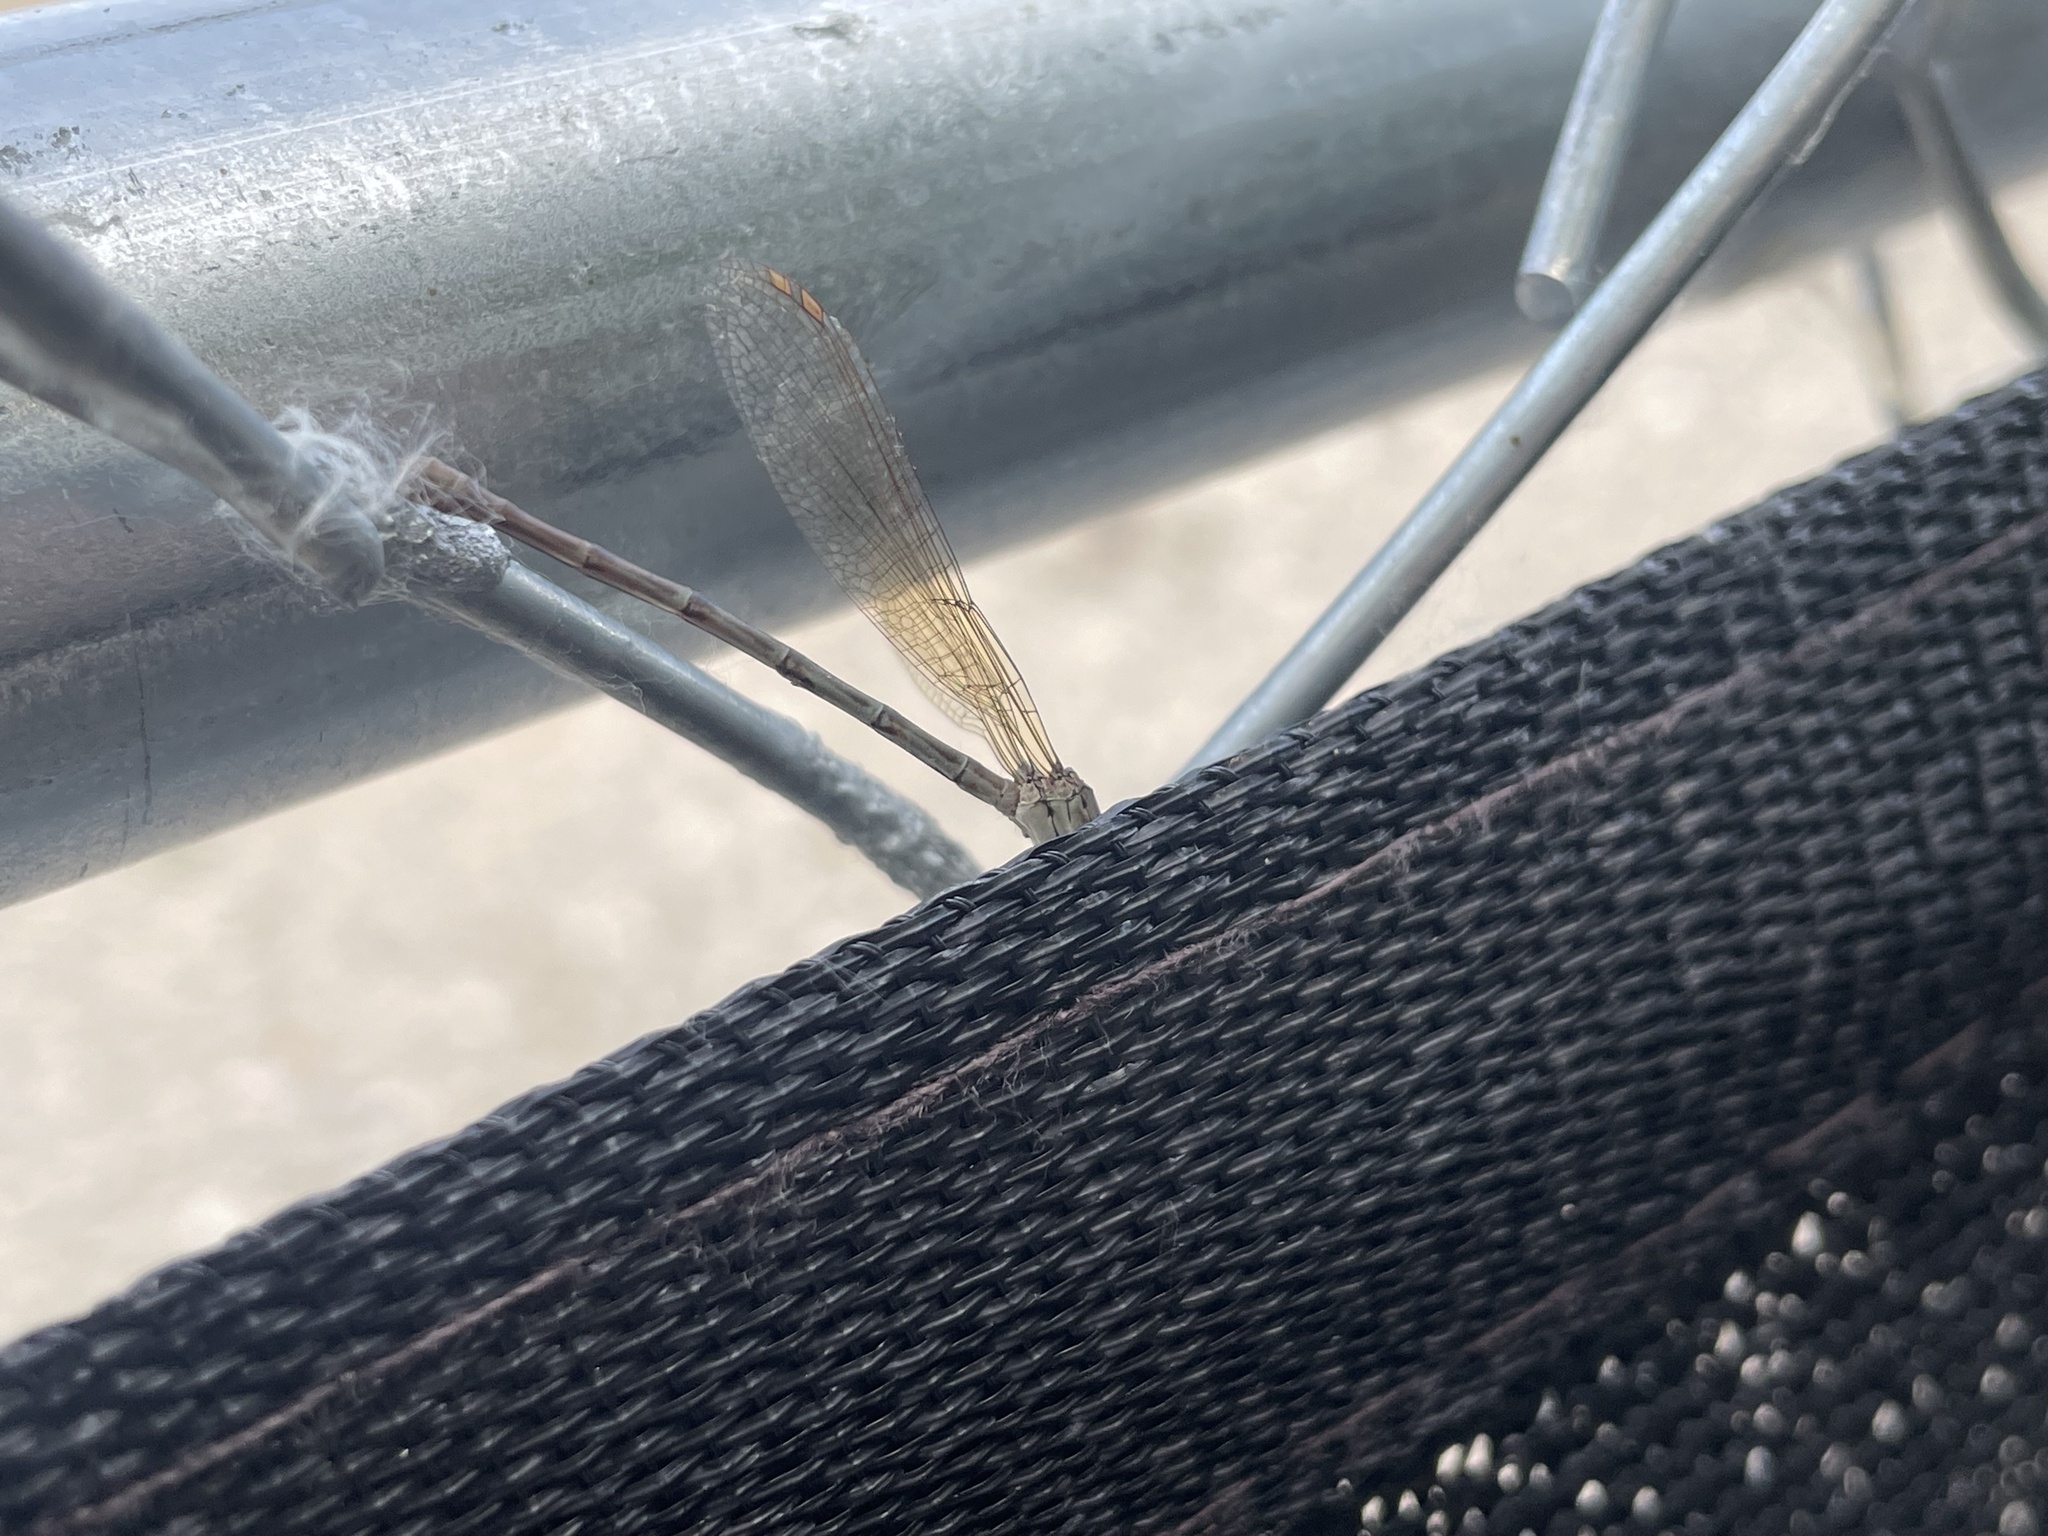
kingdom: Animalia
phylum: Arthropoda
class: Insecta
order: Odonata
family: Coenagrionidae
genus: Argia
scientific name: Argia sedula
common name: Blue-ringed dancer
